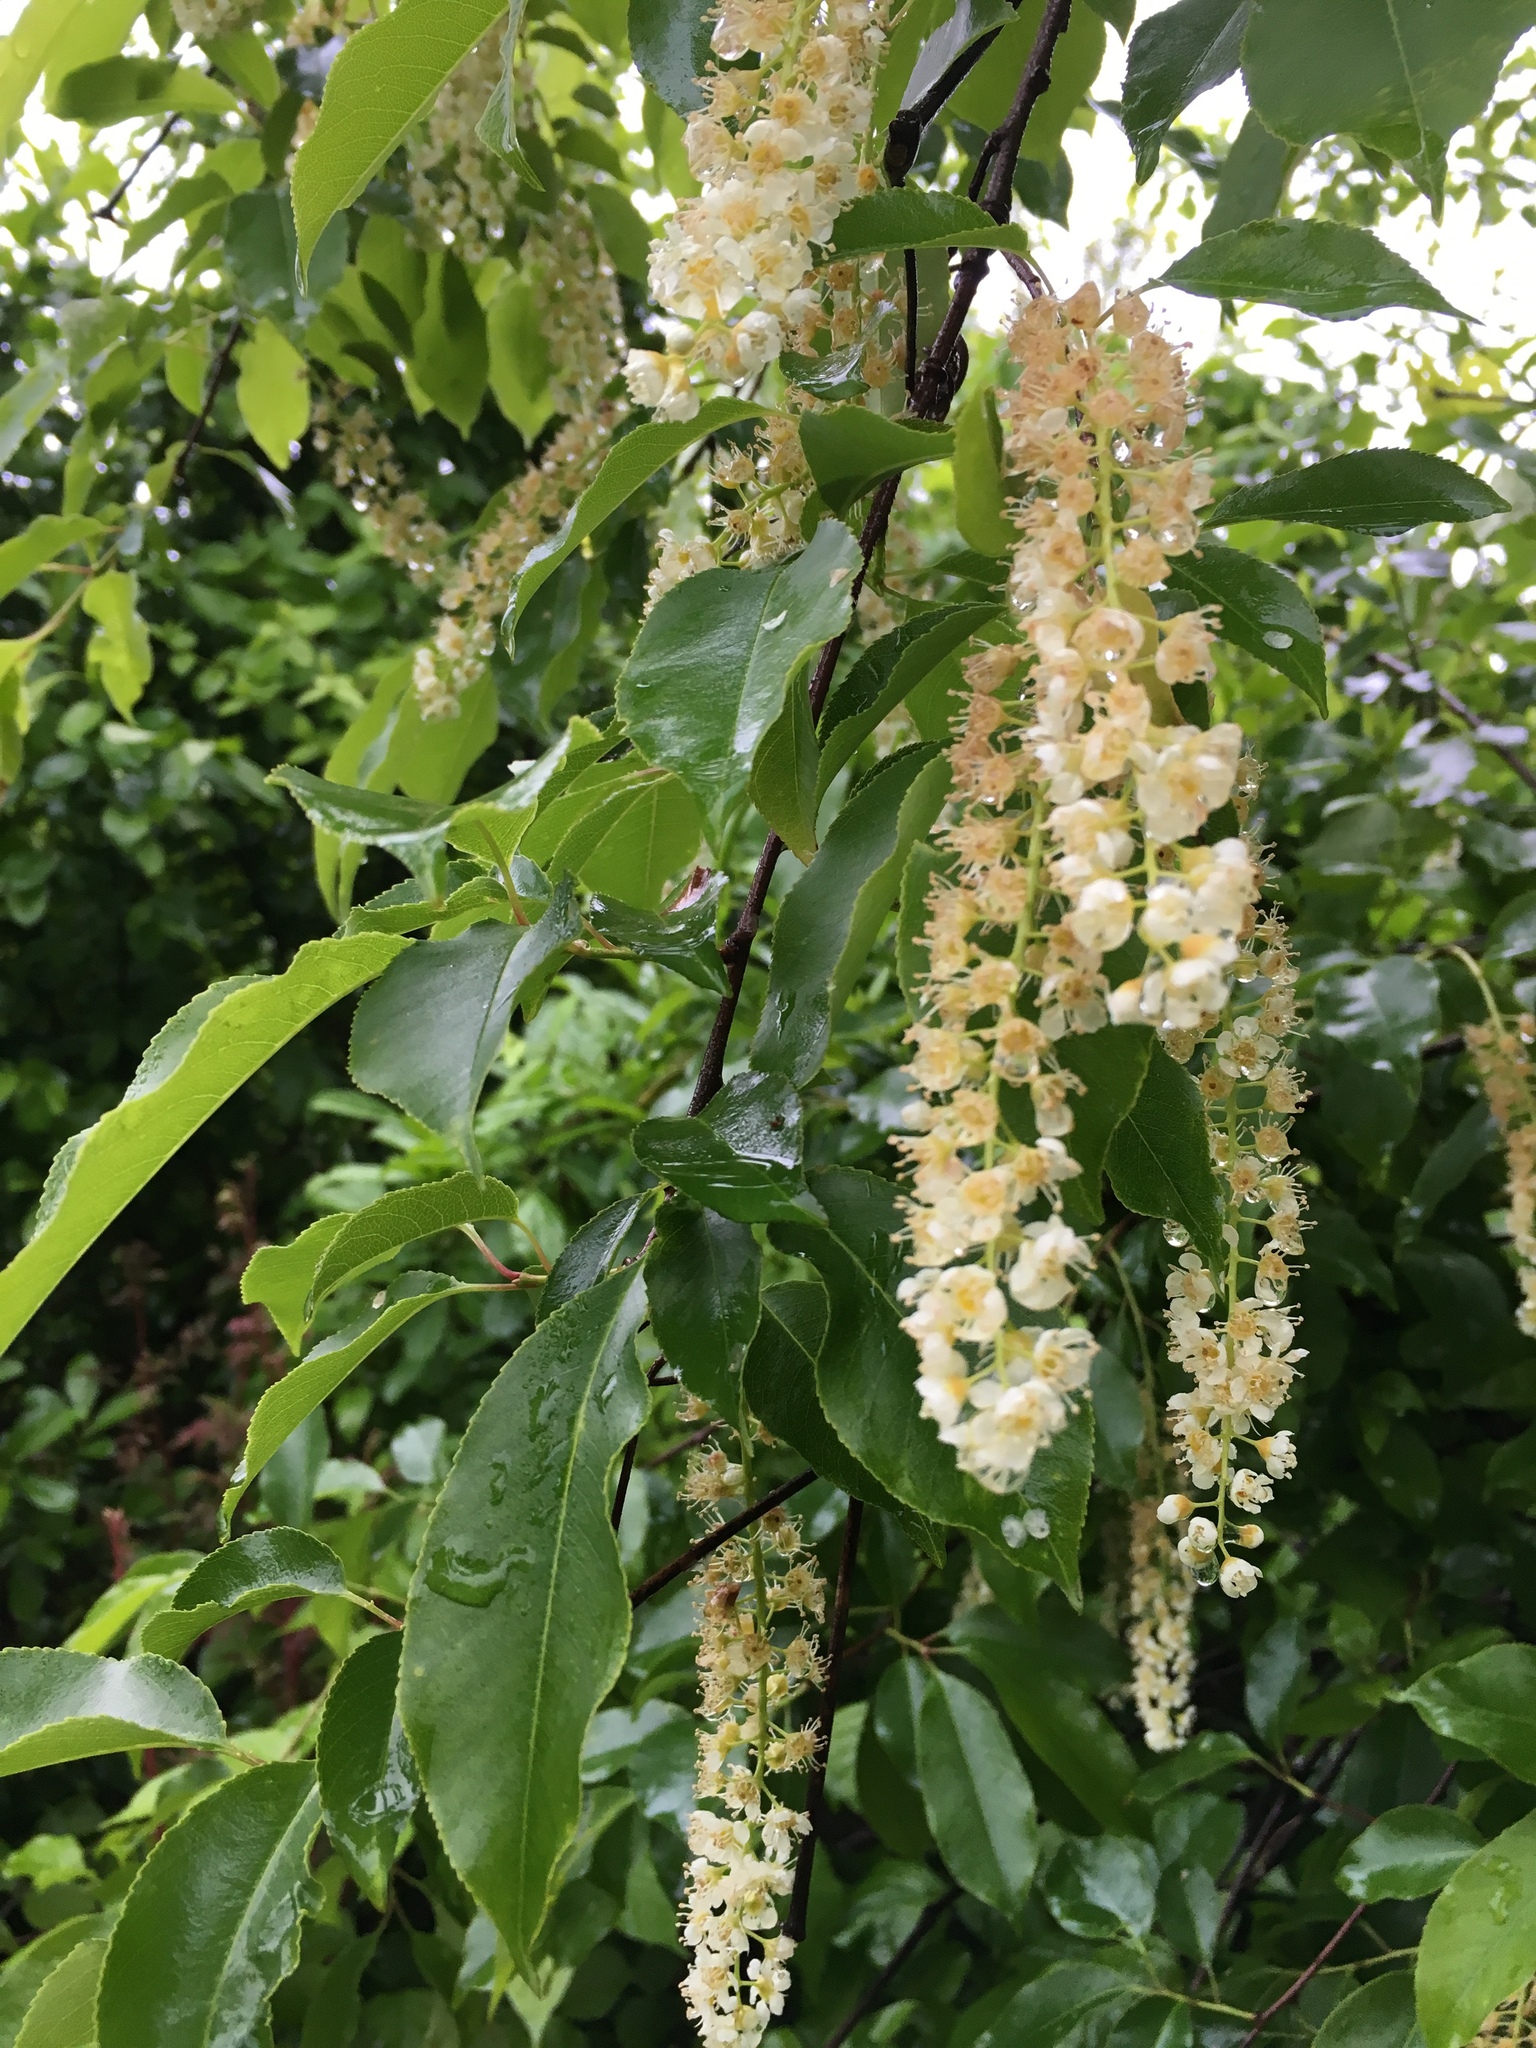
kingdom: Plantae
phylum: Tracheophyta
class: Magnoliopsida
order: Rosales
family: Rosaceae
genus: Prunus
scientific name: Prunus serotina
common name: Black cherry
